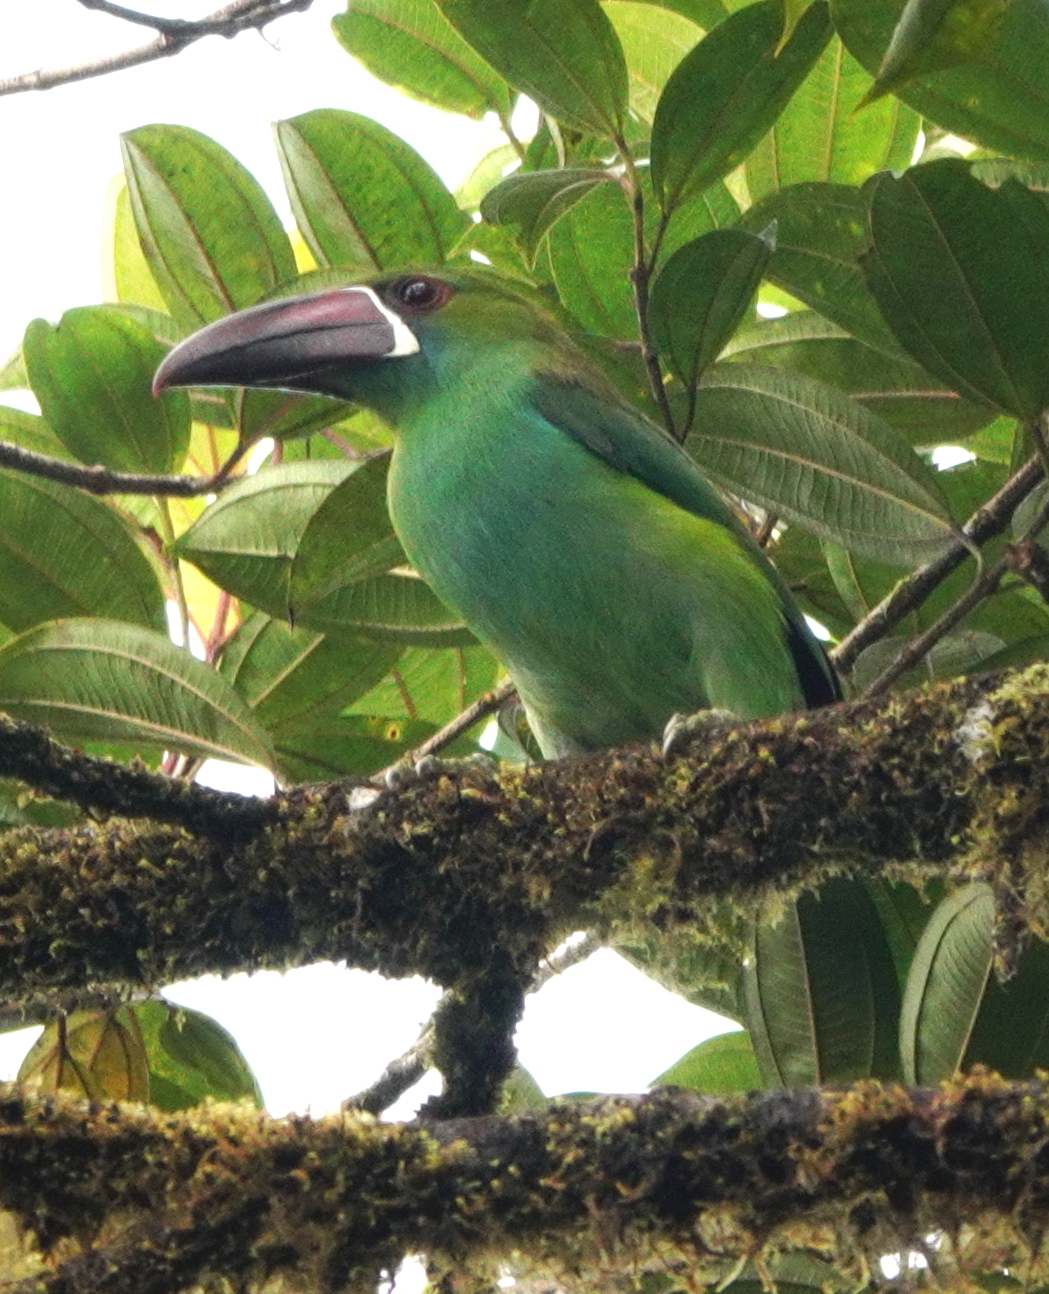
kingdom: Animalia
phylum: Chordata
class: Aves
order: Piciformes
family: Ramphastidae
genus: Aulacorhynchus
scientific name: Aulacorhynchus haematopygus
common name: Crimson-rumped toucanet
